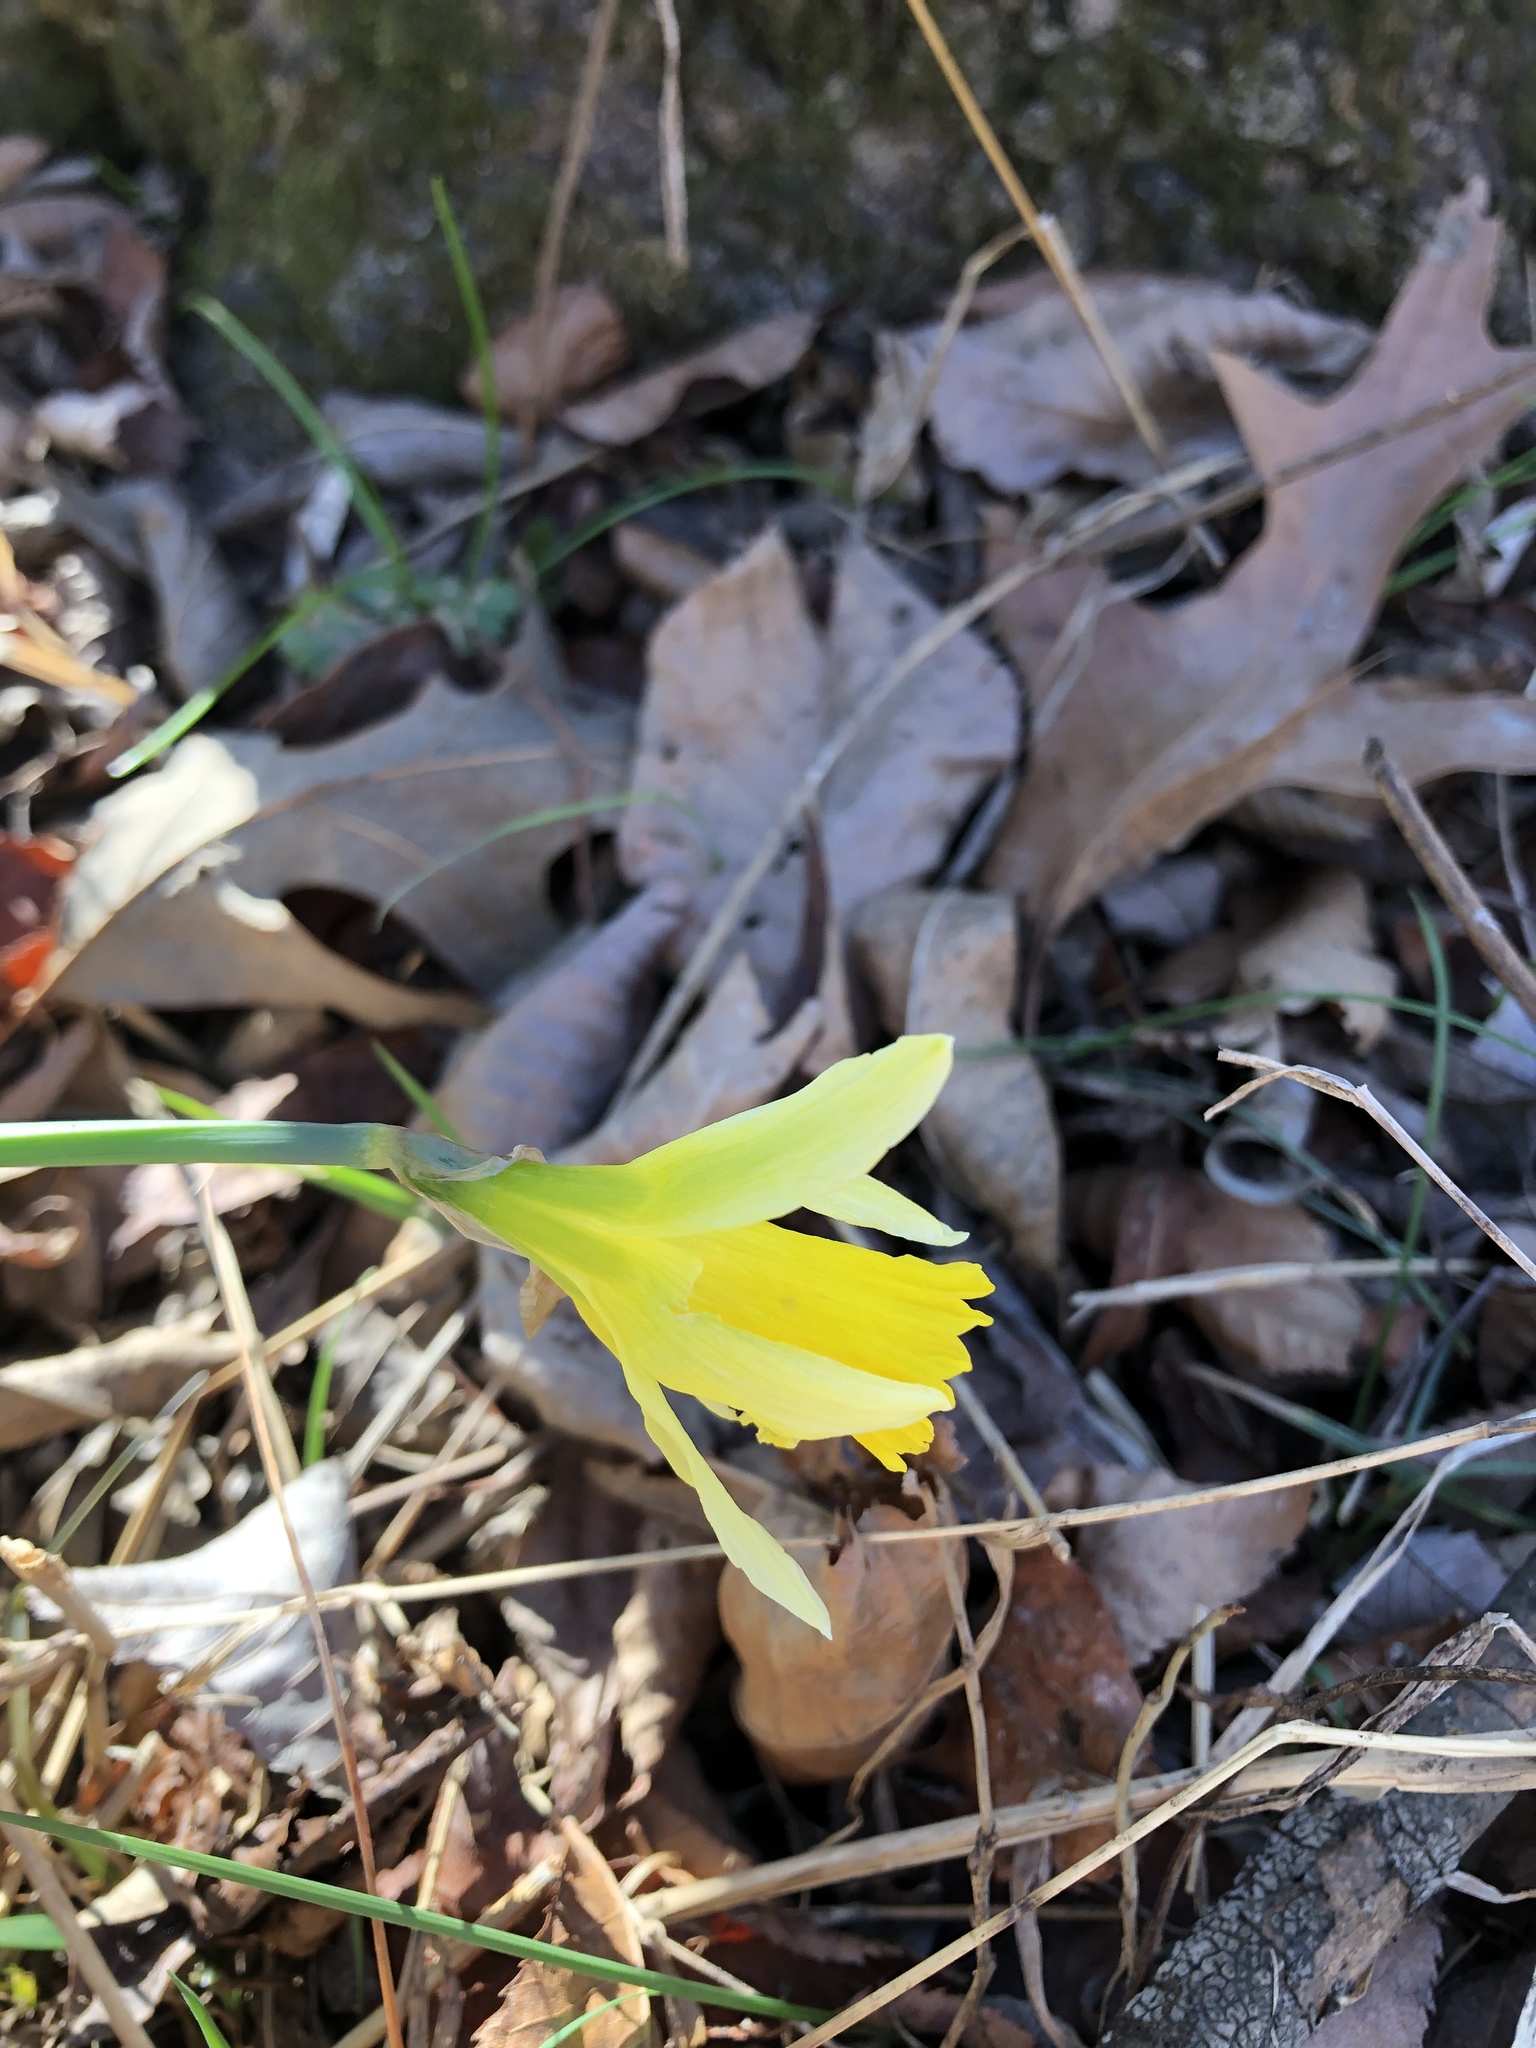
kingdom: Plantae
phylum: Tracheophyta
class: Liliopsida
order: Asparagales
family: Amaryllidaceae
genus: Narcissus
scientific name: Narcissus pseudonarcissus
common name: Daffodil
